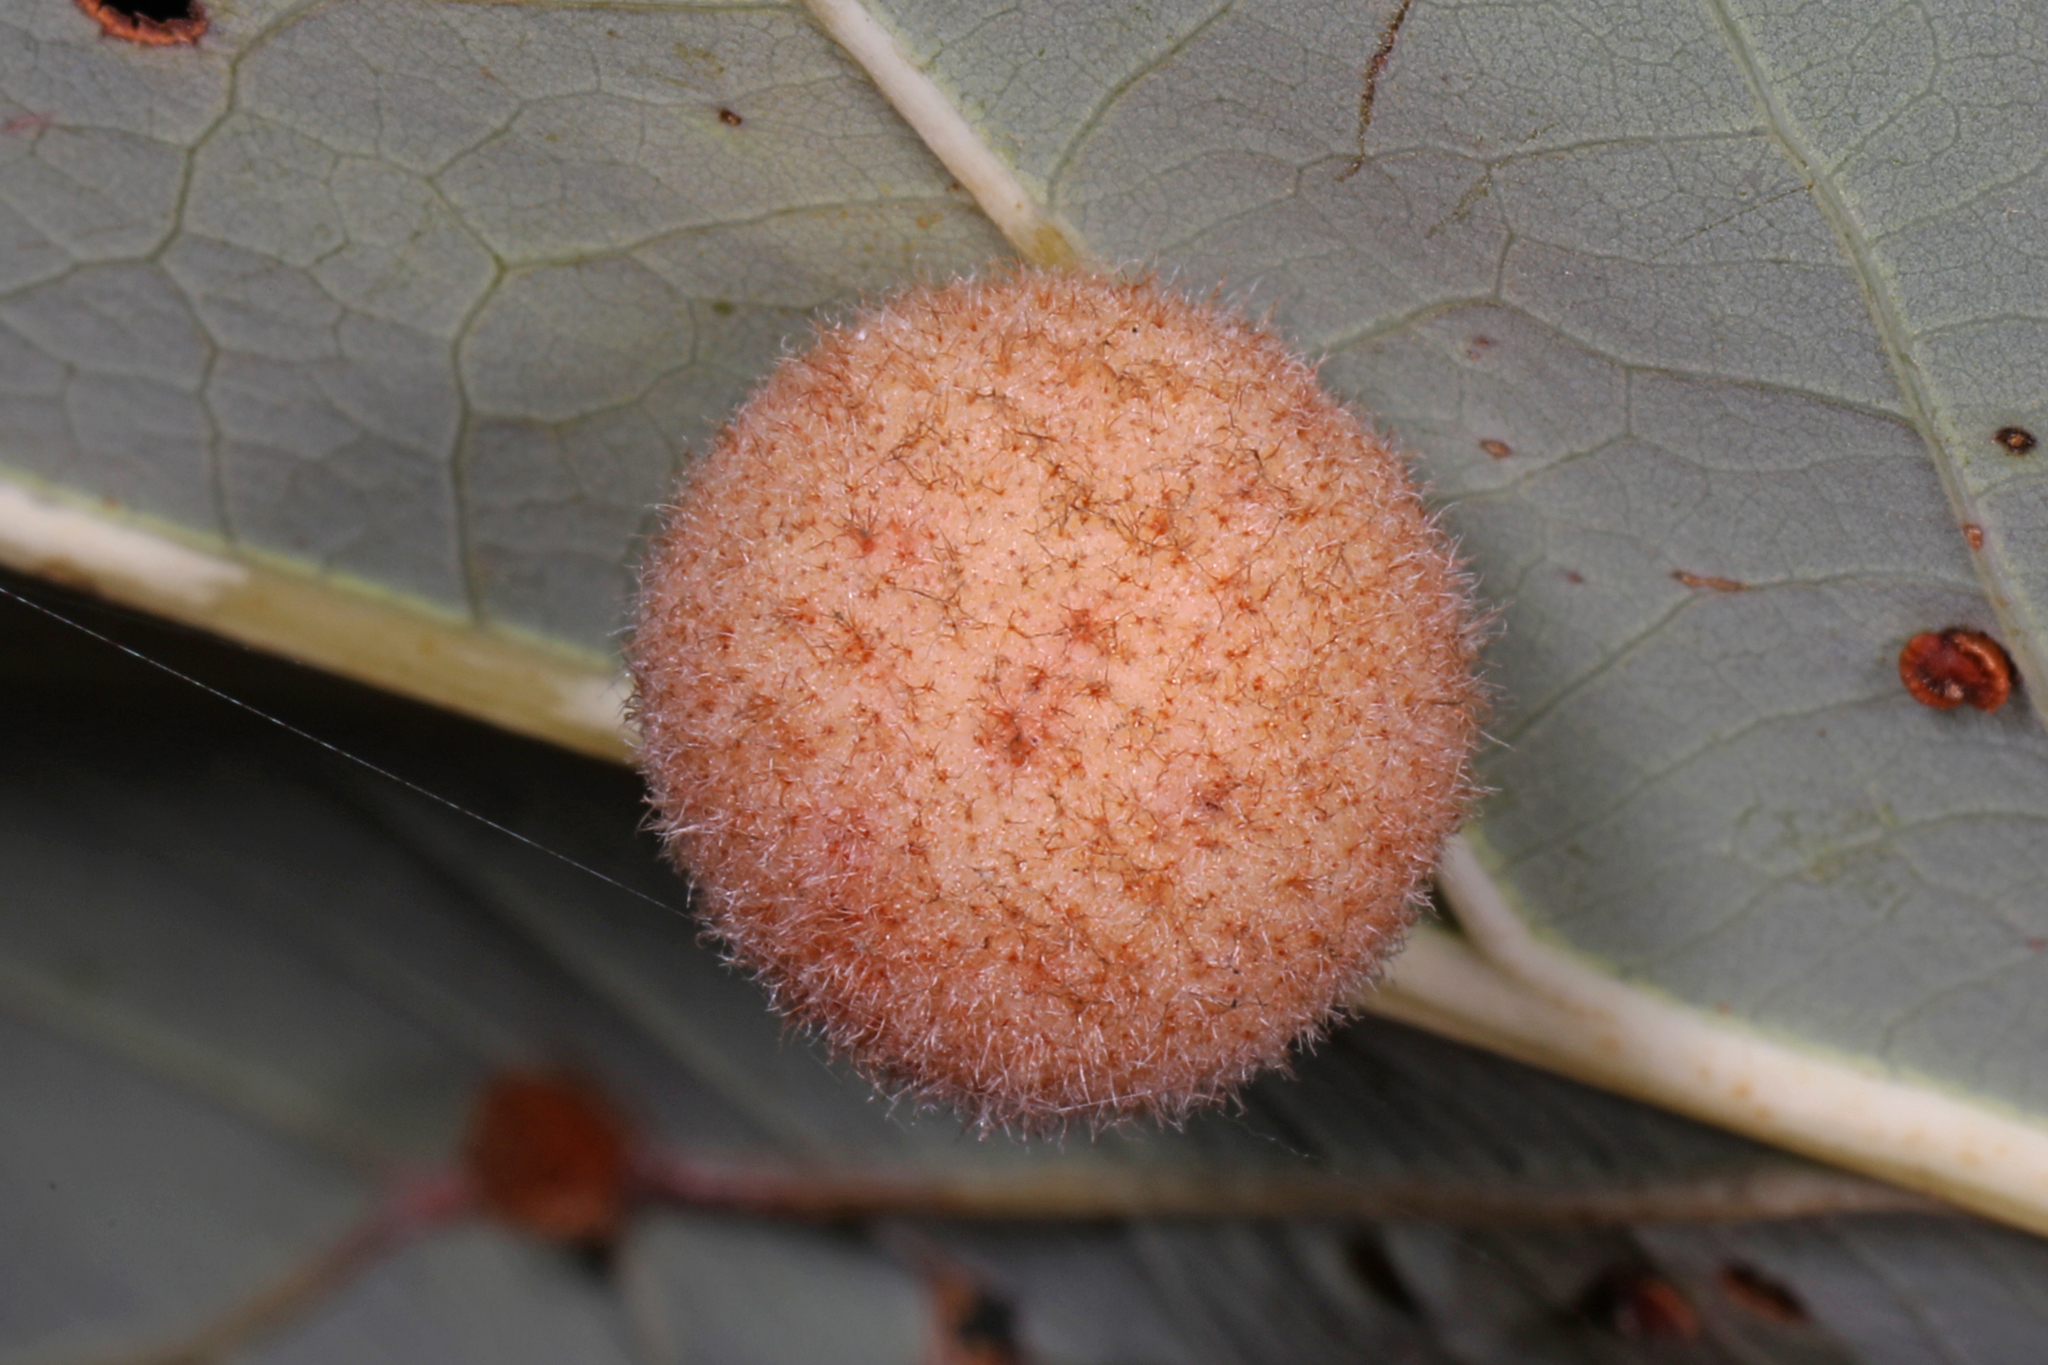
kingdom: Animalia
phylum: Arthropoda
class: Insecta
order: Hymenoptera
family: Cynipidae
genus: Philonix
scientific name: Philonix fulvicollis
